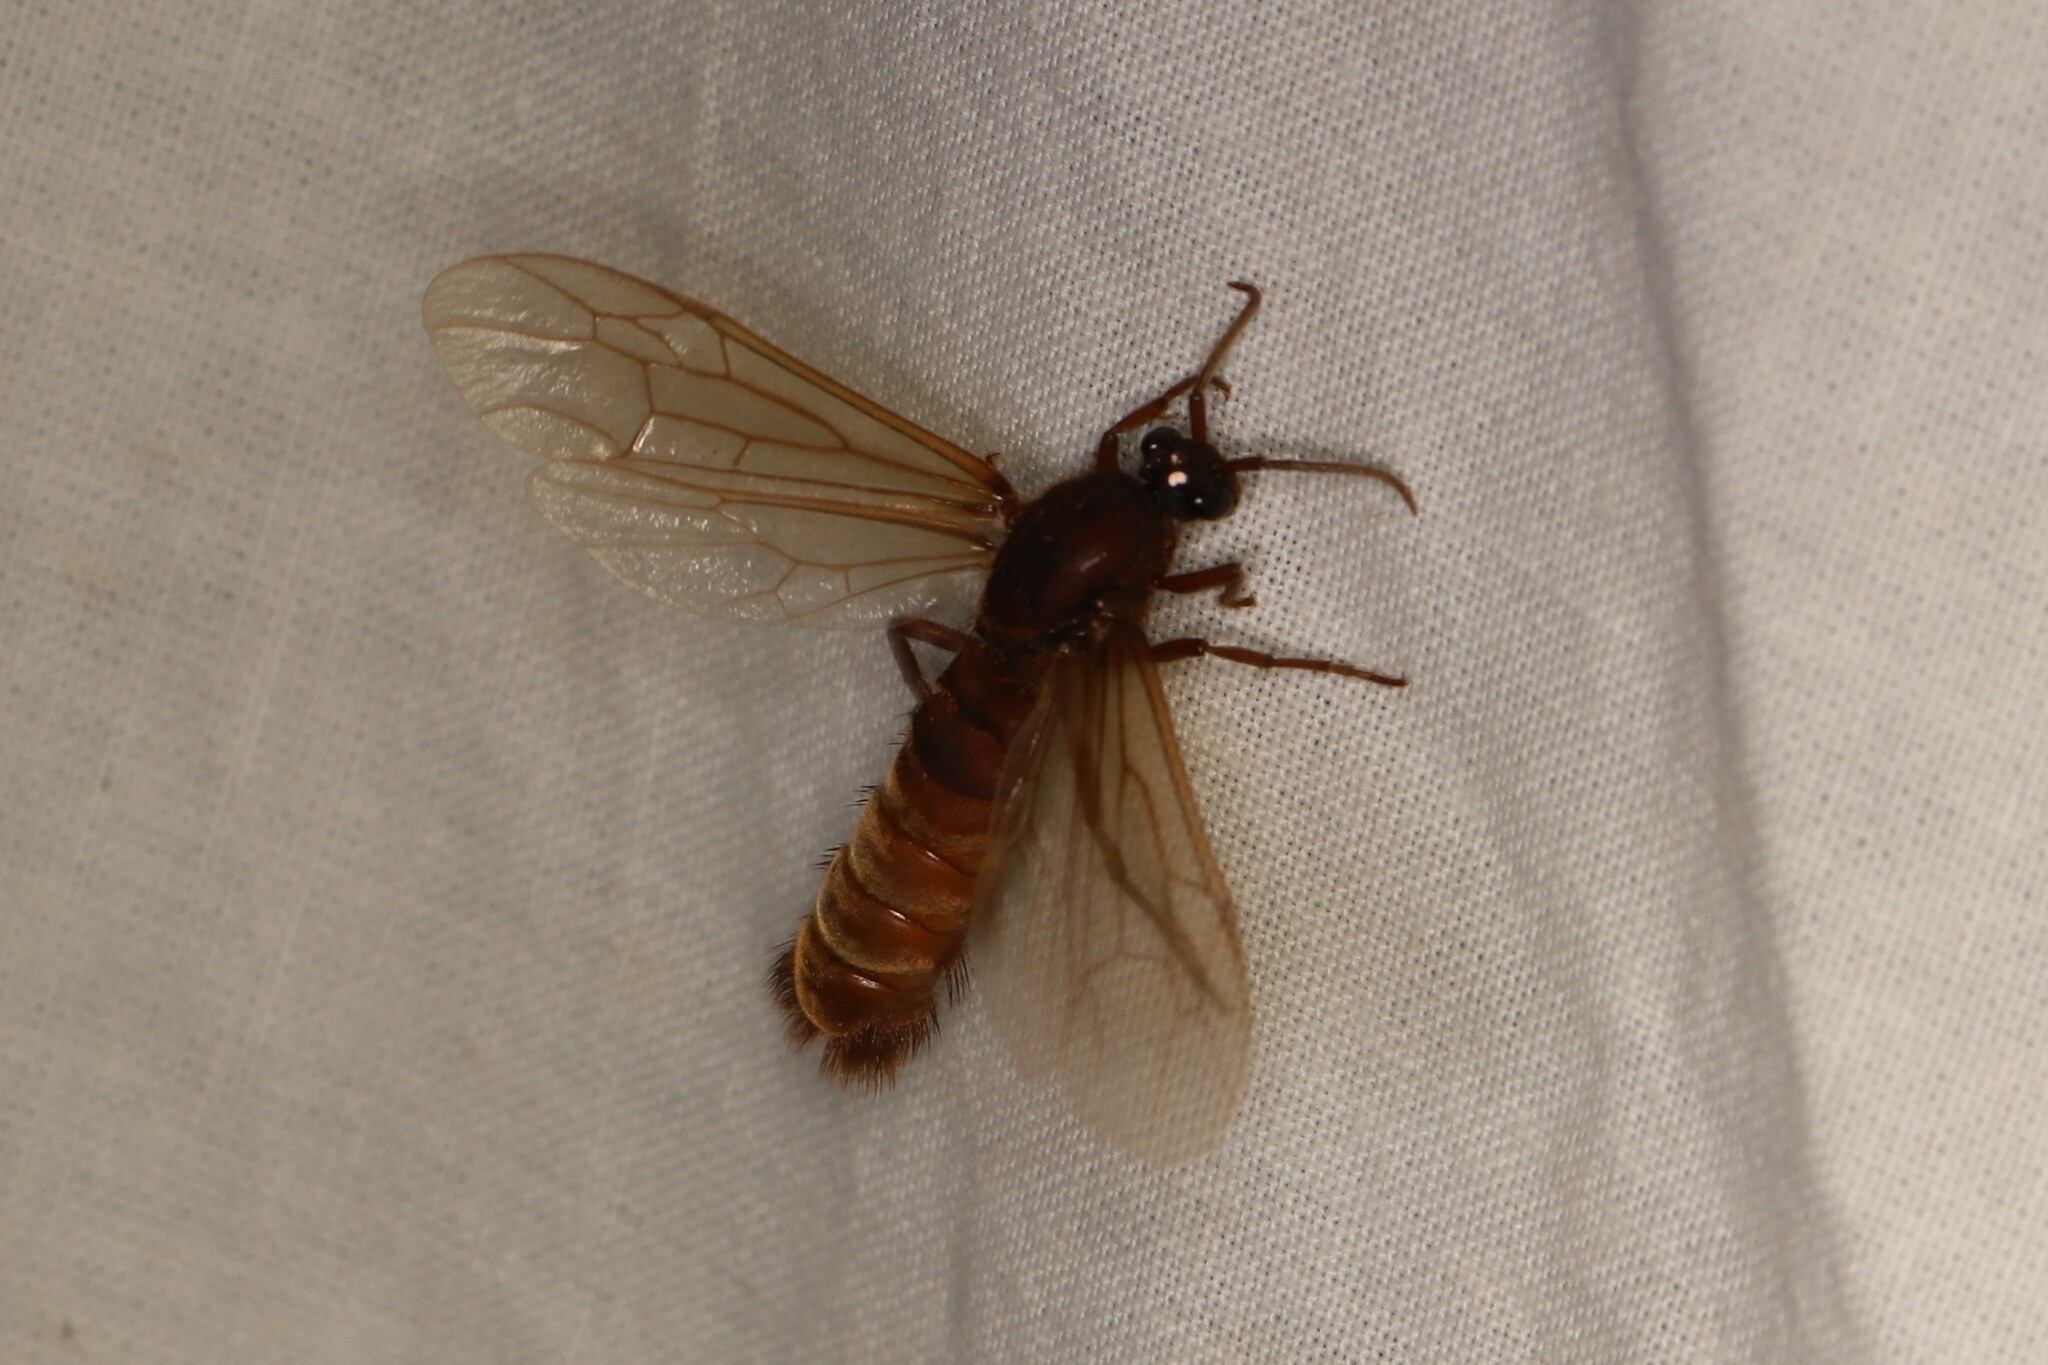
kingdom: Animalia
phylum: Arthropoda
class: Insecta
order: Hymenoptera
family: Formicidae
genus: Nomamyrmex
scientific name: Nomamyrmex esenbeckii
